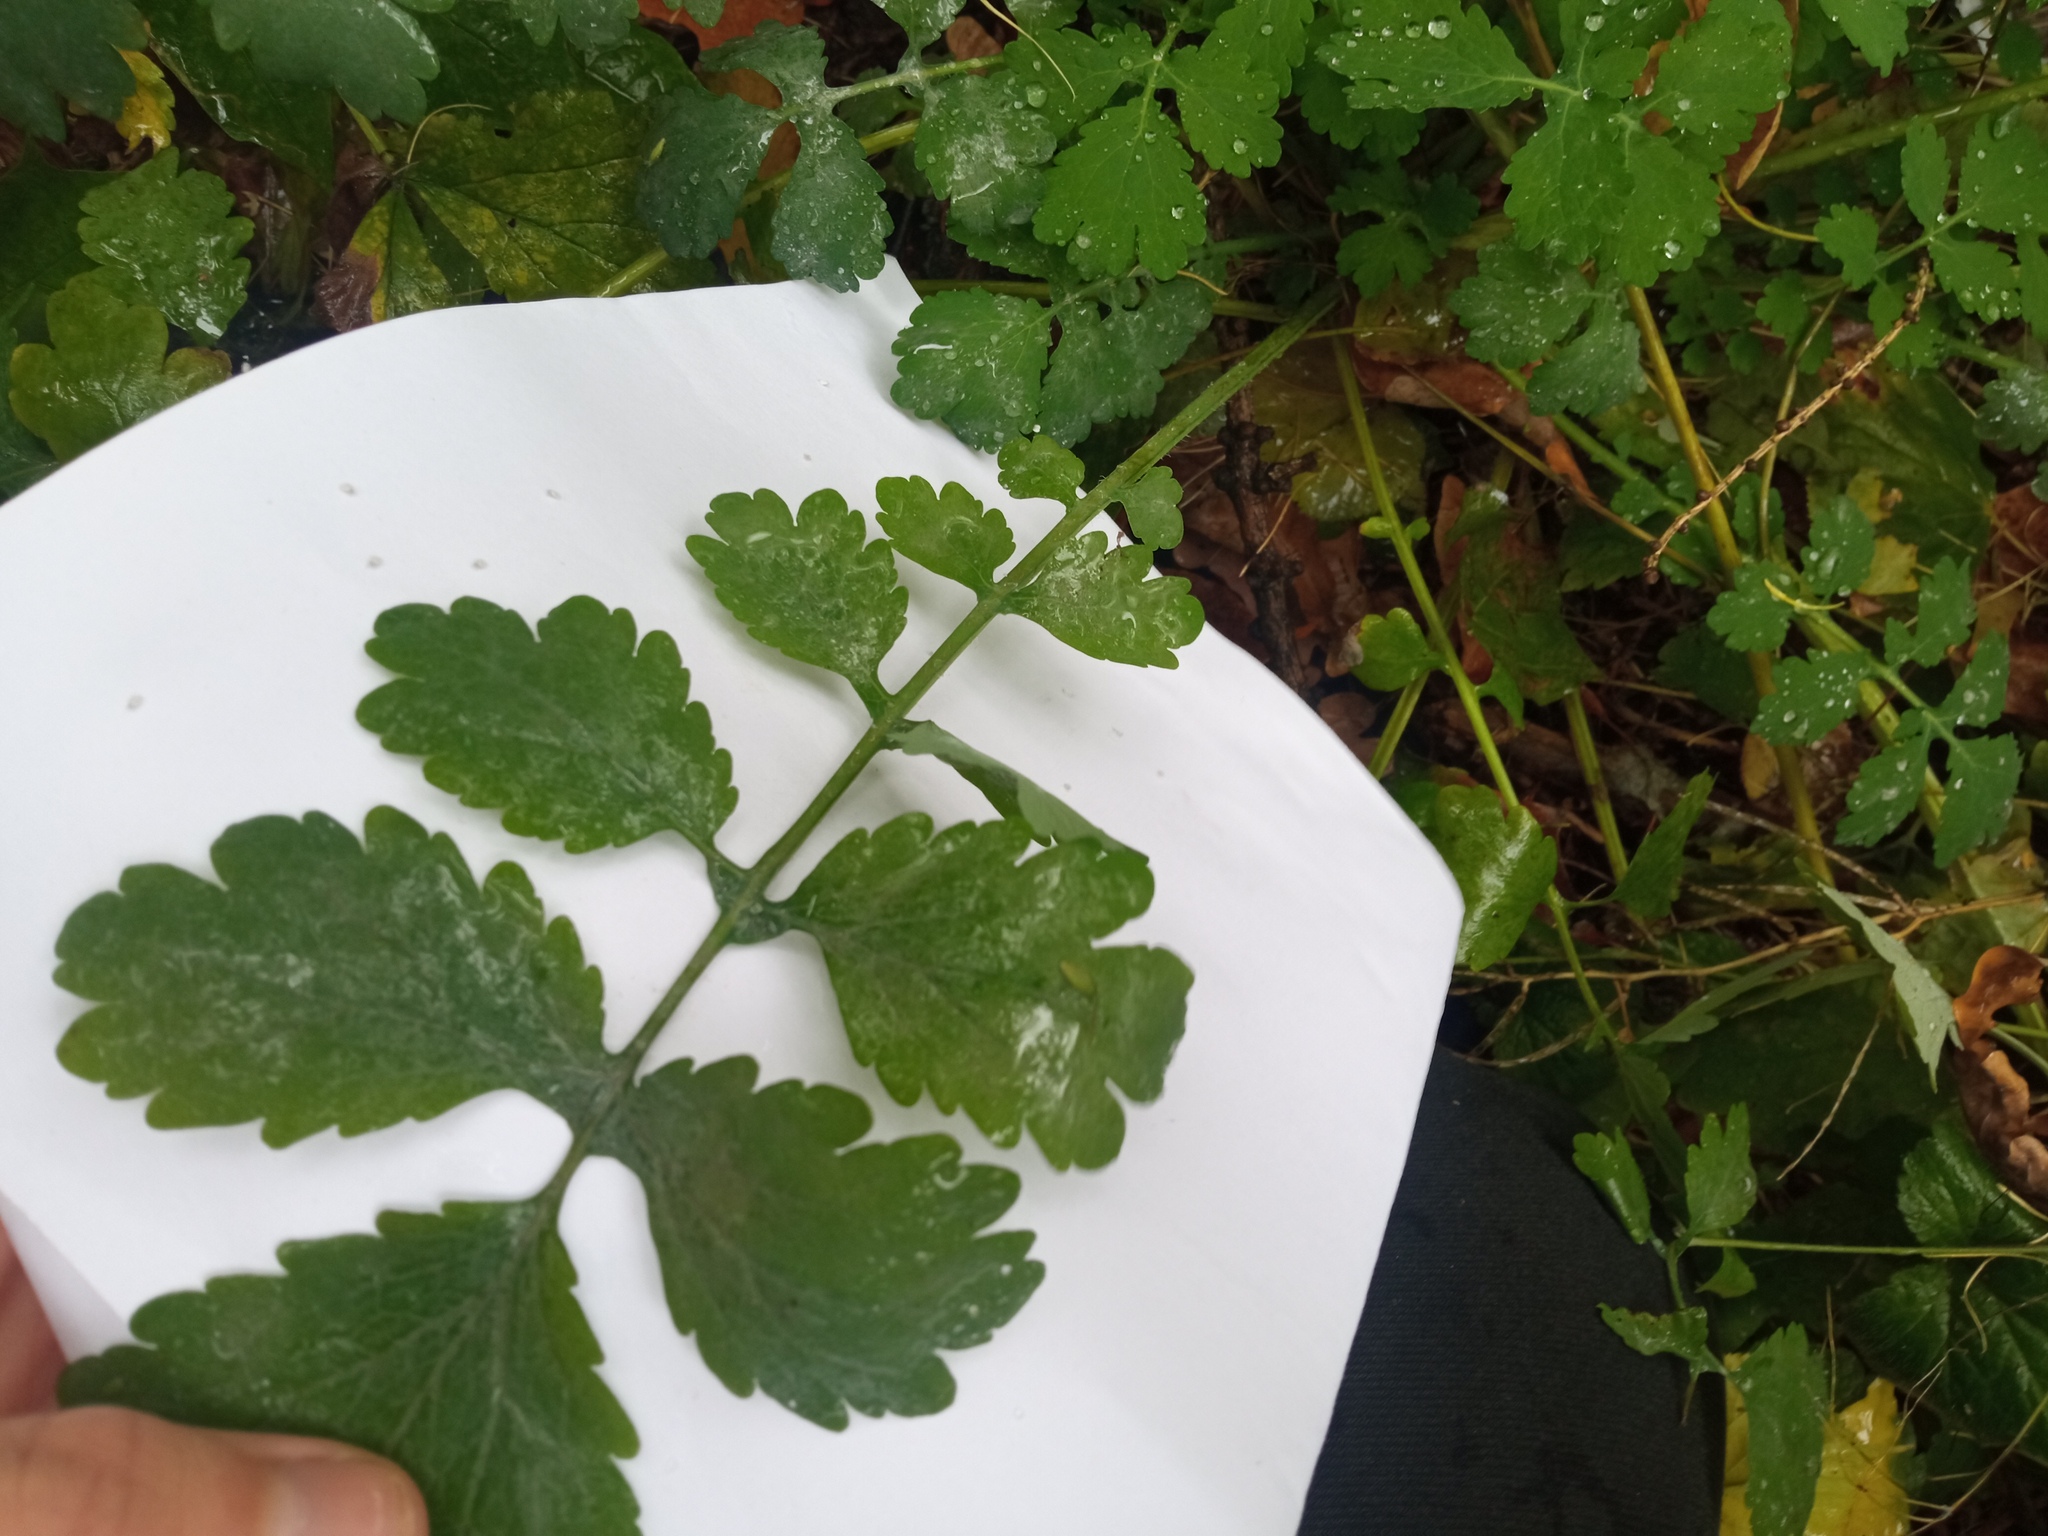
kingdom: Plantae
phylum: Tracheophyta
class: Magnoliopsida
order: Ranunculales
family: Papaveraceae
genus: Chelidonium
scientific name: Chelidonium majus
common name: Greater celandine
